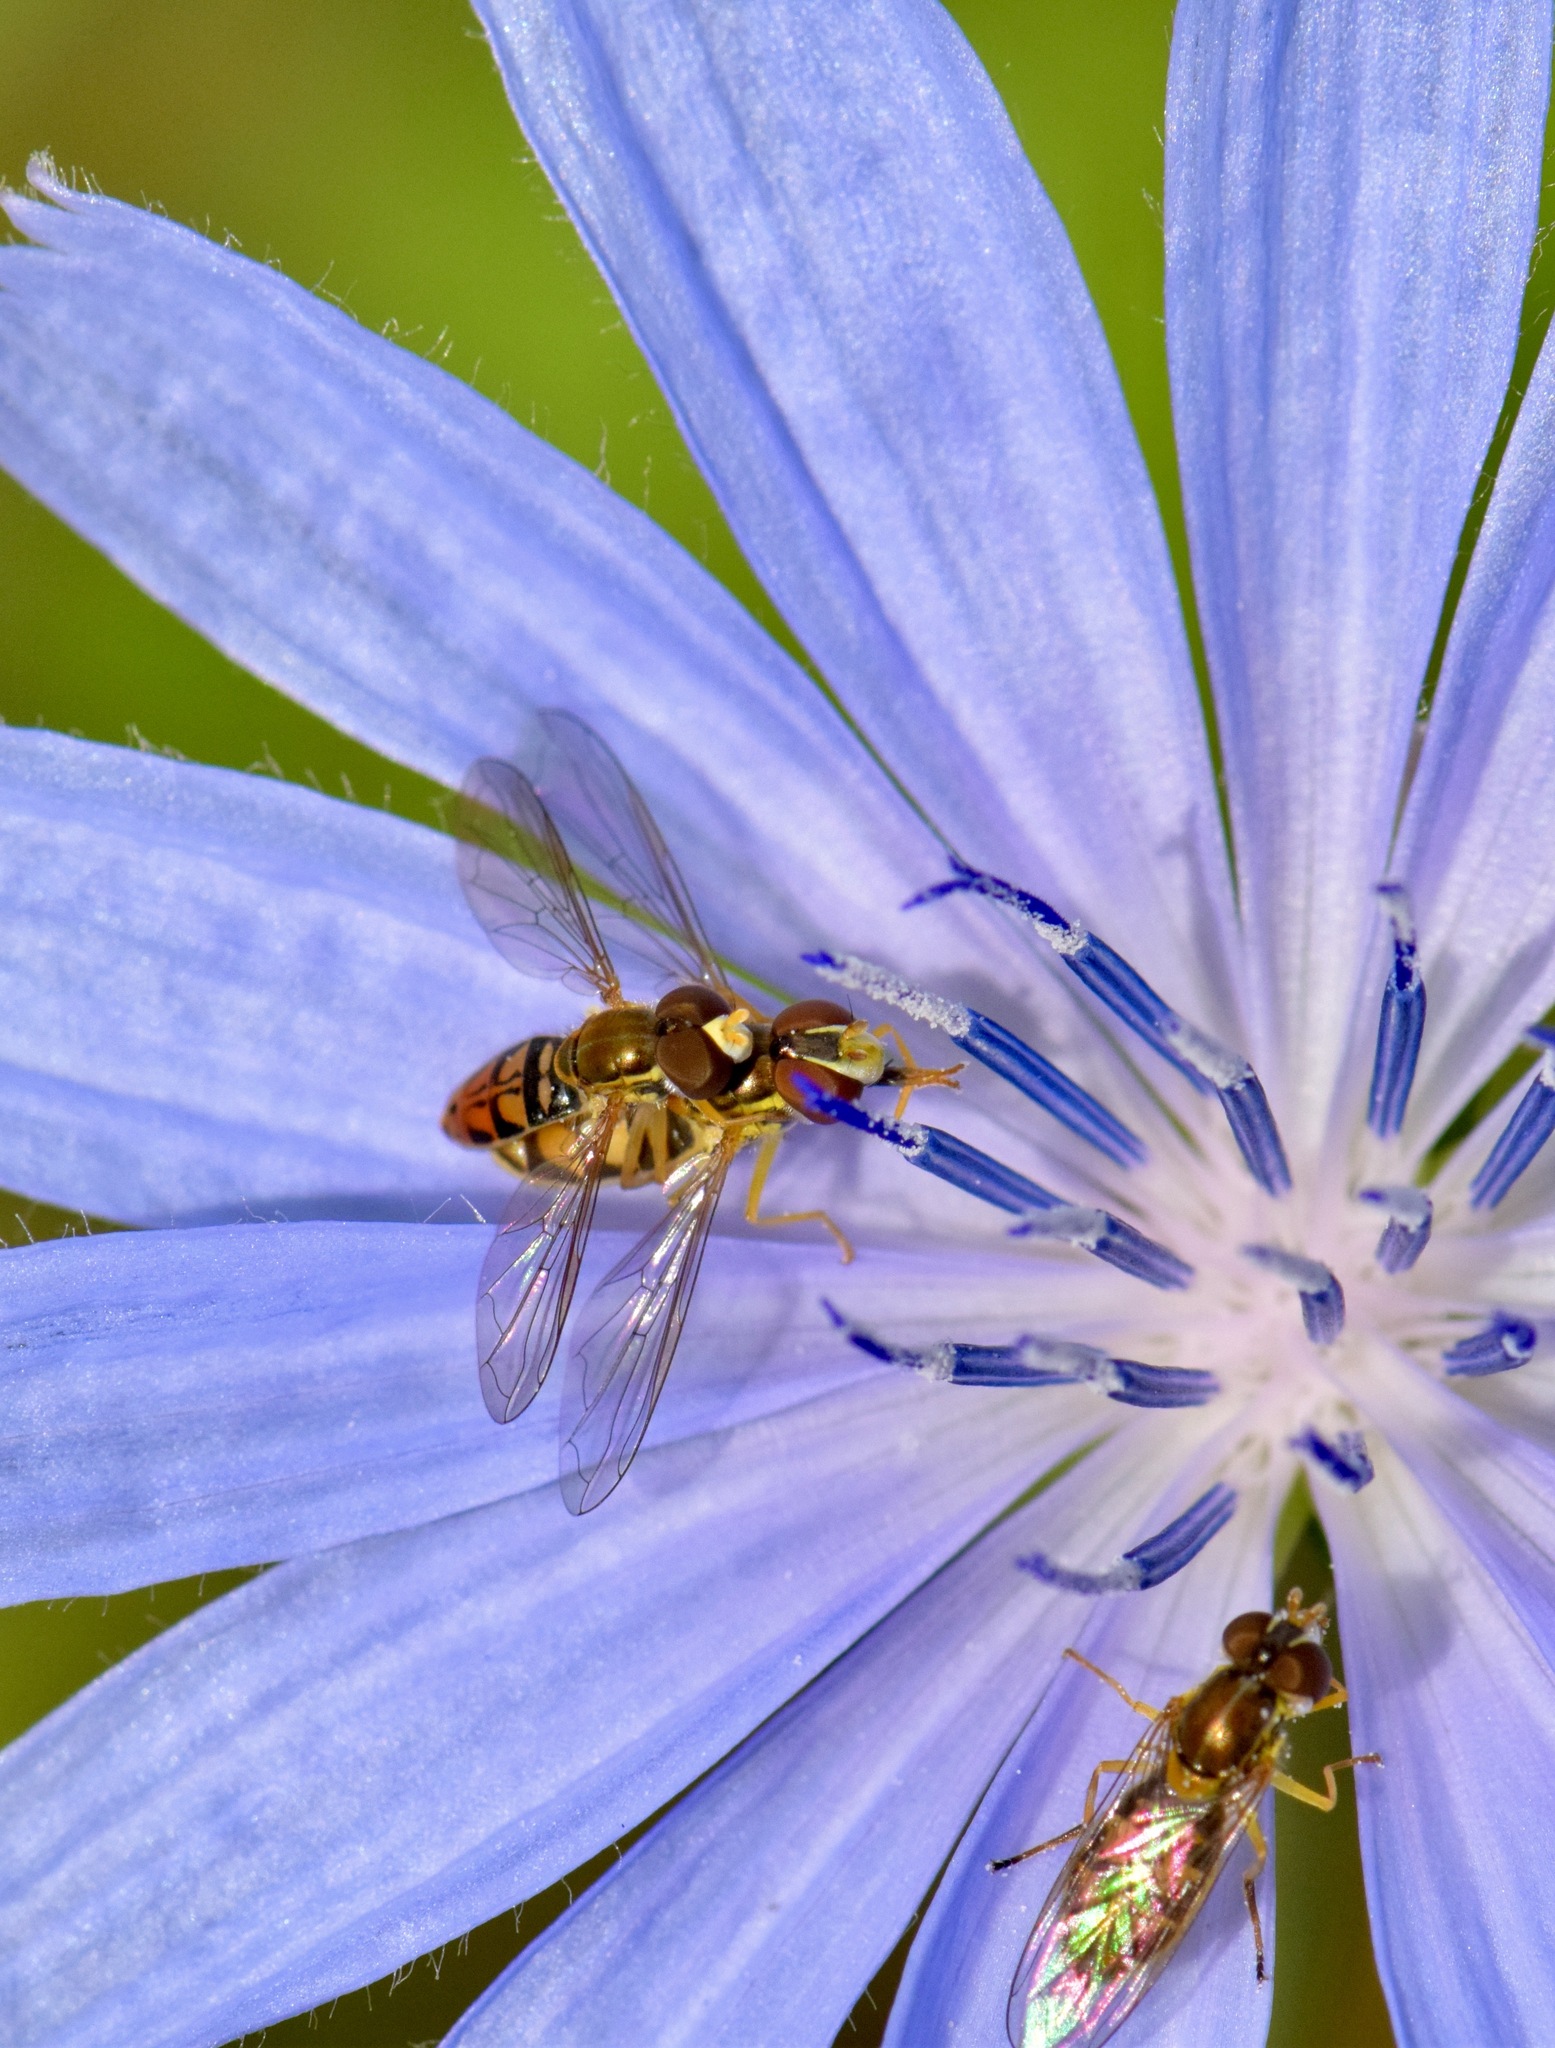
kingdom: Animalia
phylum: Arthropoda
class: Insecta
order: Diptera
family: Syrphidae
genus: Toxomerus
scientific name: Toxomerus marginatus
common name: Syrphid fly
